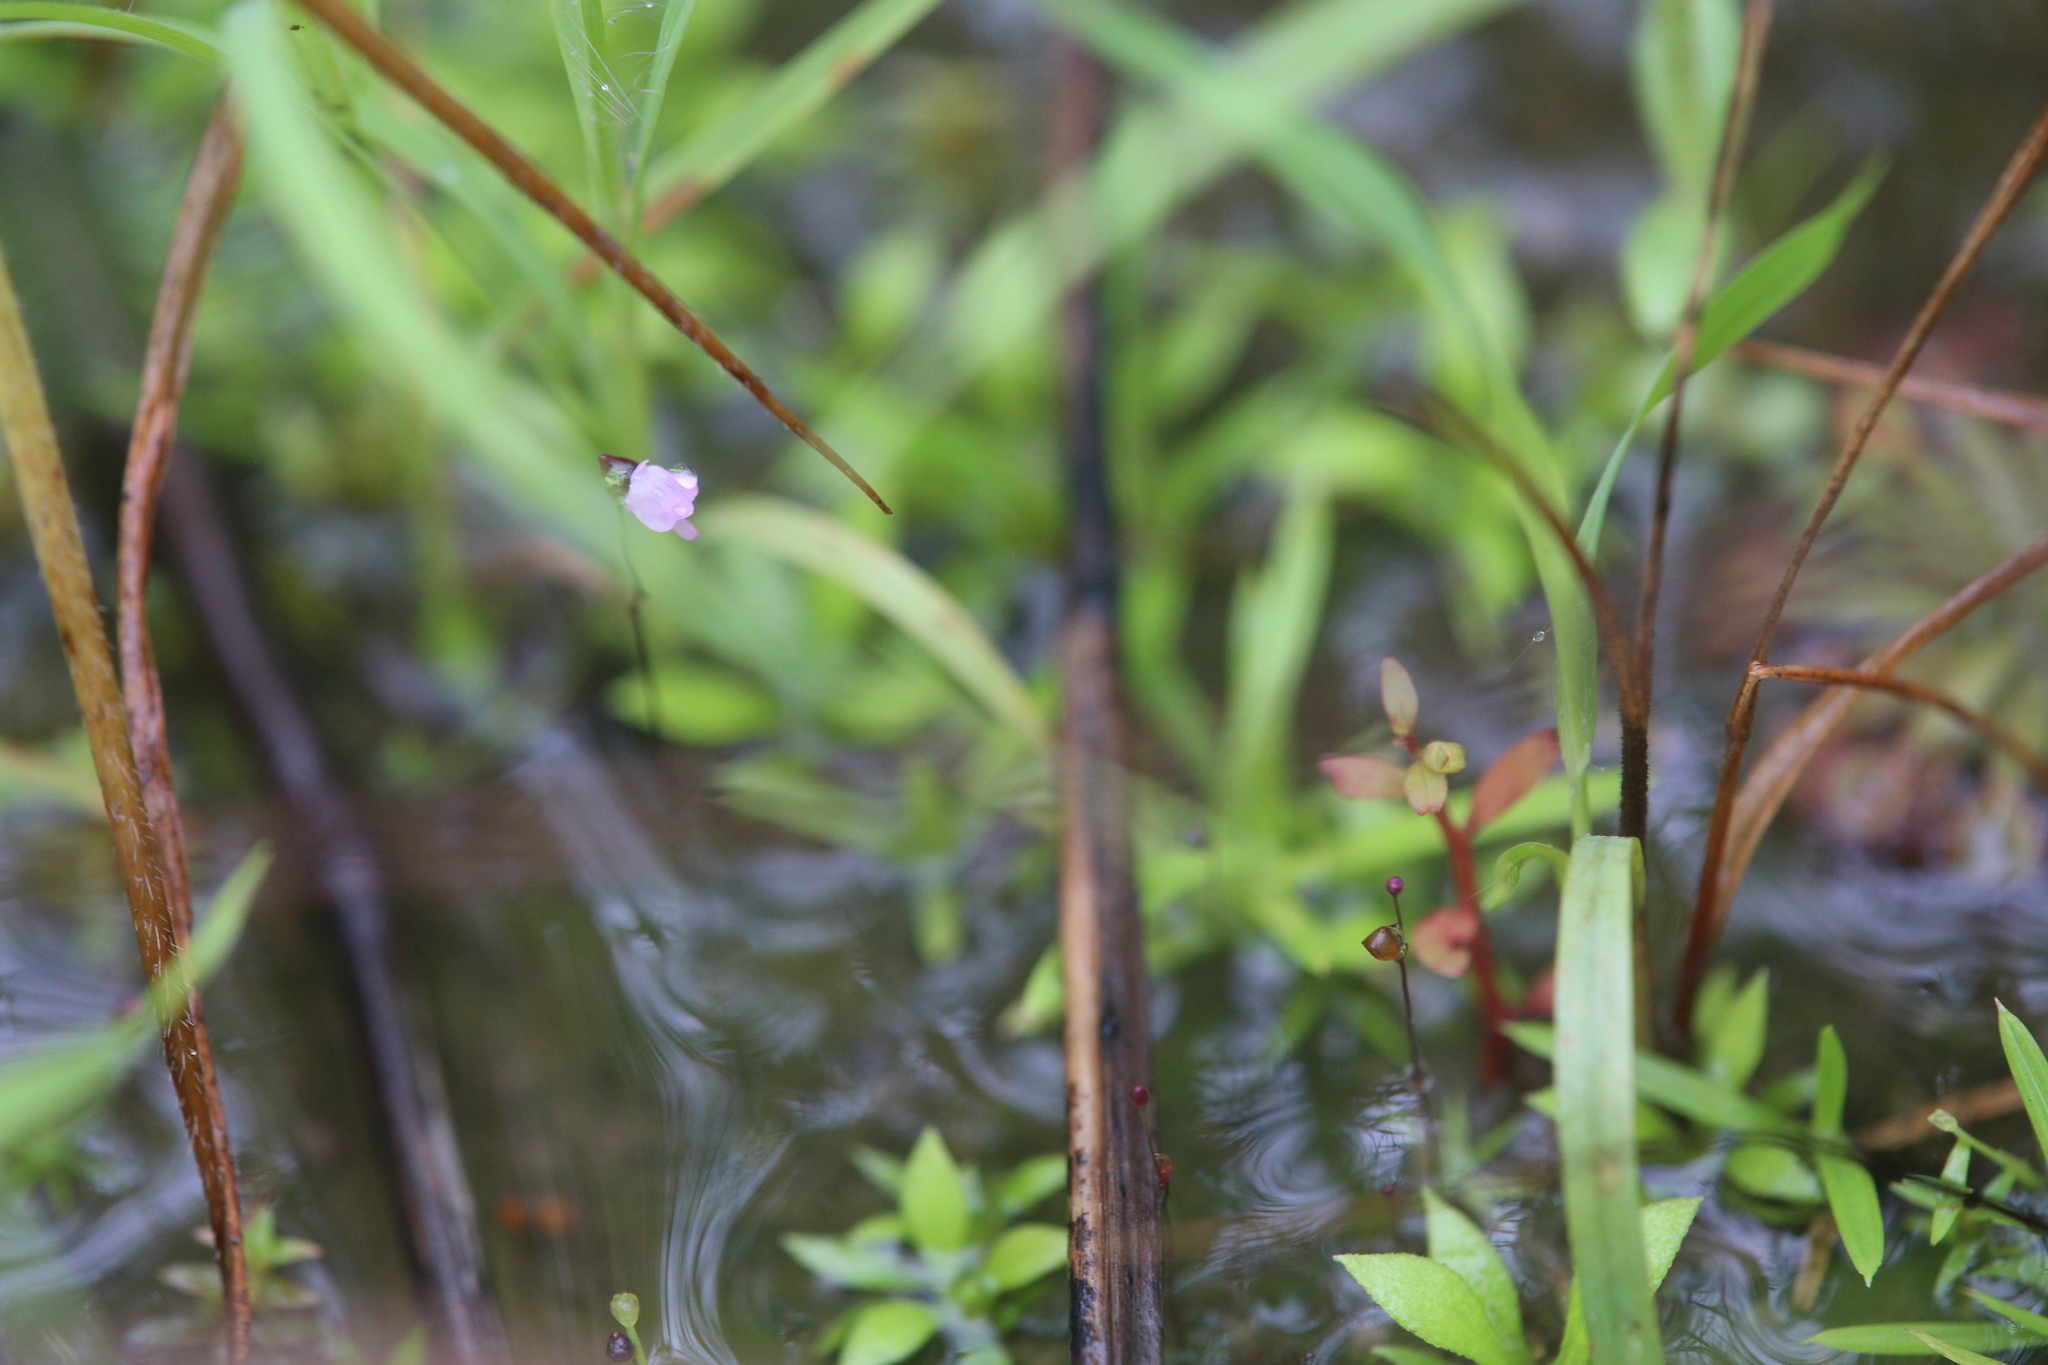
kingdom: Plantae
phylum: Tracheophyta
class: Magnoliopsida
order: Lamiales
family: Lentibulariaceae
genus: Utricularia
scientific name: Utricularia minutissima
